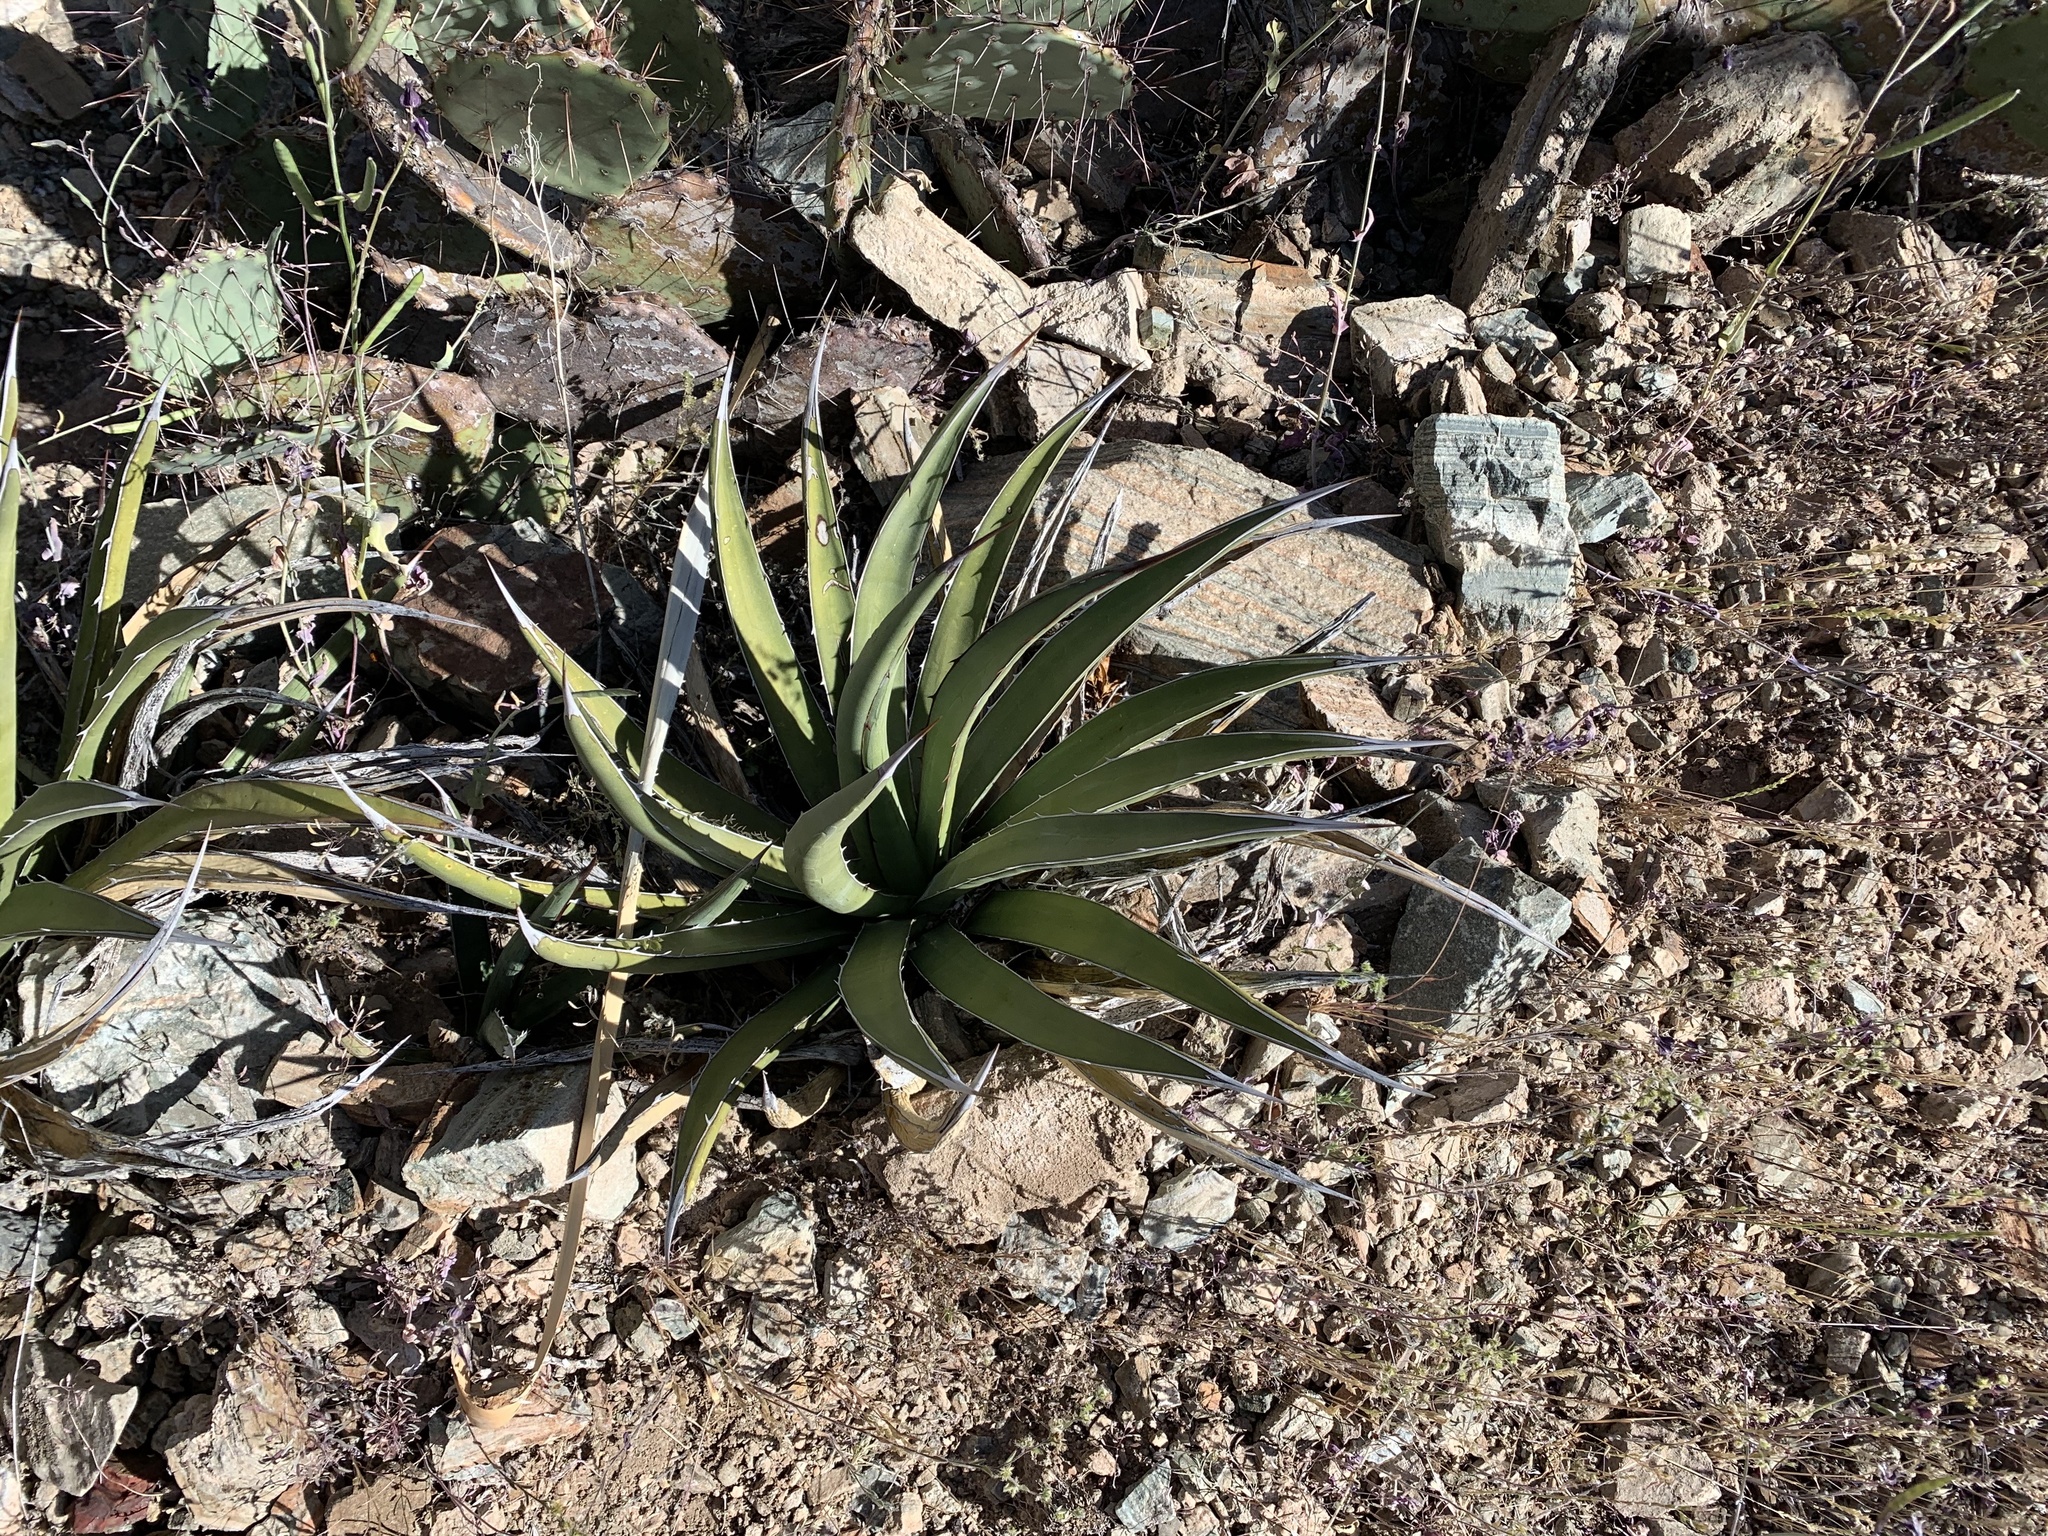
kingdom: Plantae
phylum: Tracheophyta
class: Liliopsida
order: Asparagales
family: Asparagaceae
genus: Agave
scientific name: Agave lechuguilla
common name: Lecheguilla agave
